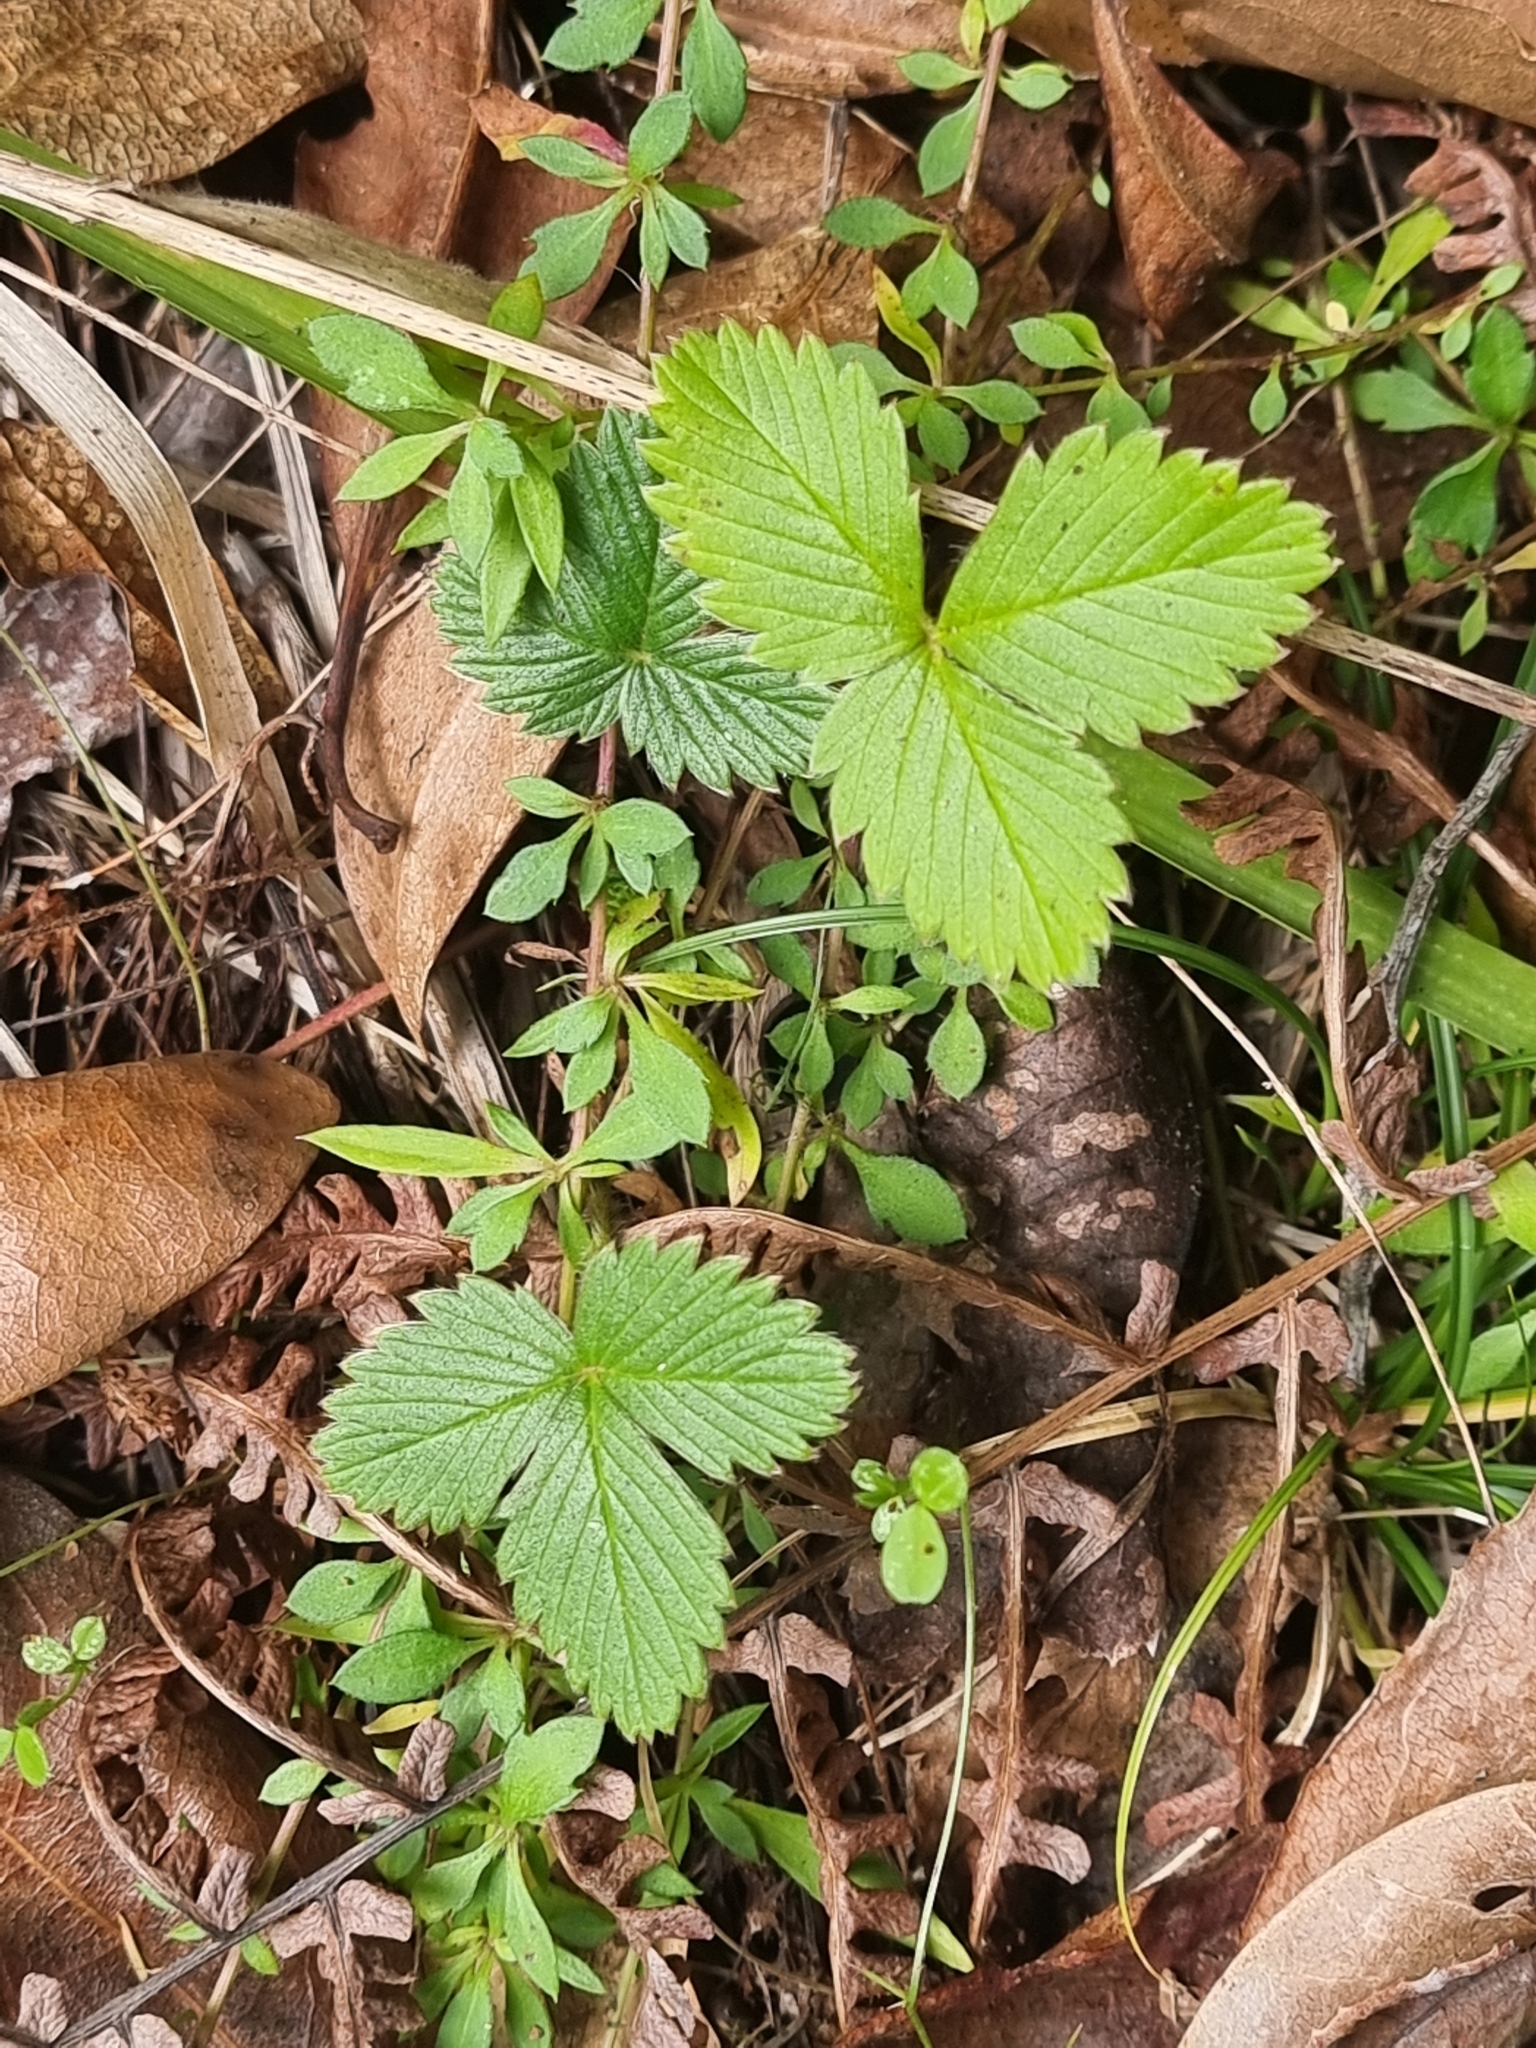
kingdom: Plantae
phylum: Tracheophyta
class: Magnoliopsida
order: Rosales
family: Rosaceae
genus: Fragaria
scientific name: Fragaria vesca
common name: Wild strawberry
